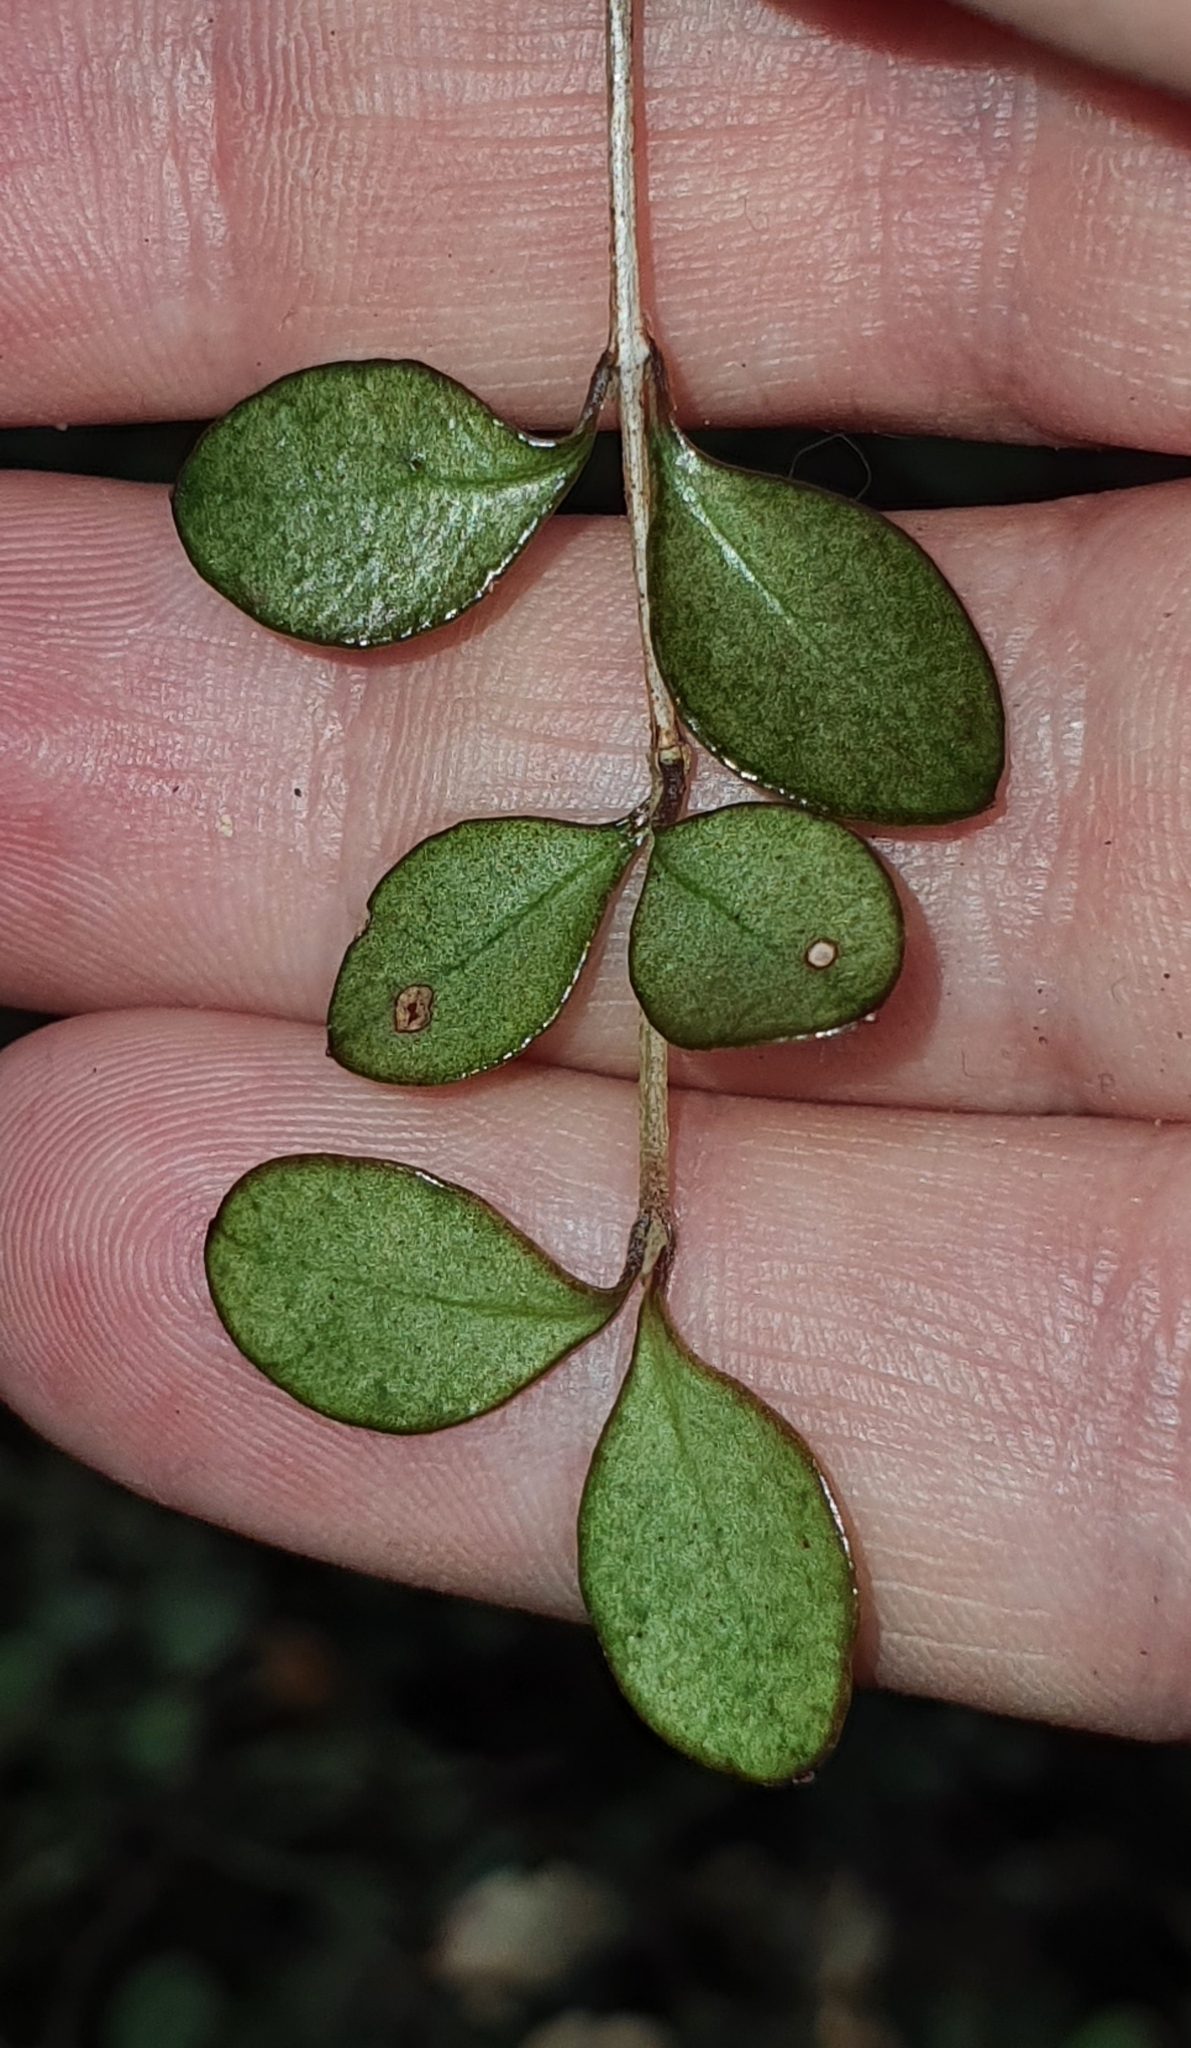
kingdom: Plantae
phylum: Tracheophyta
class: Magnoliopsida
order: Myrtales
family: Myrtaceae
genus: Neomyrtus
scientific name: Neomyrtus pedunculata
